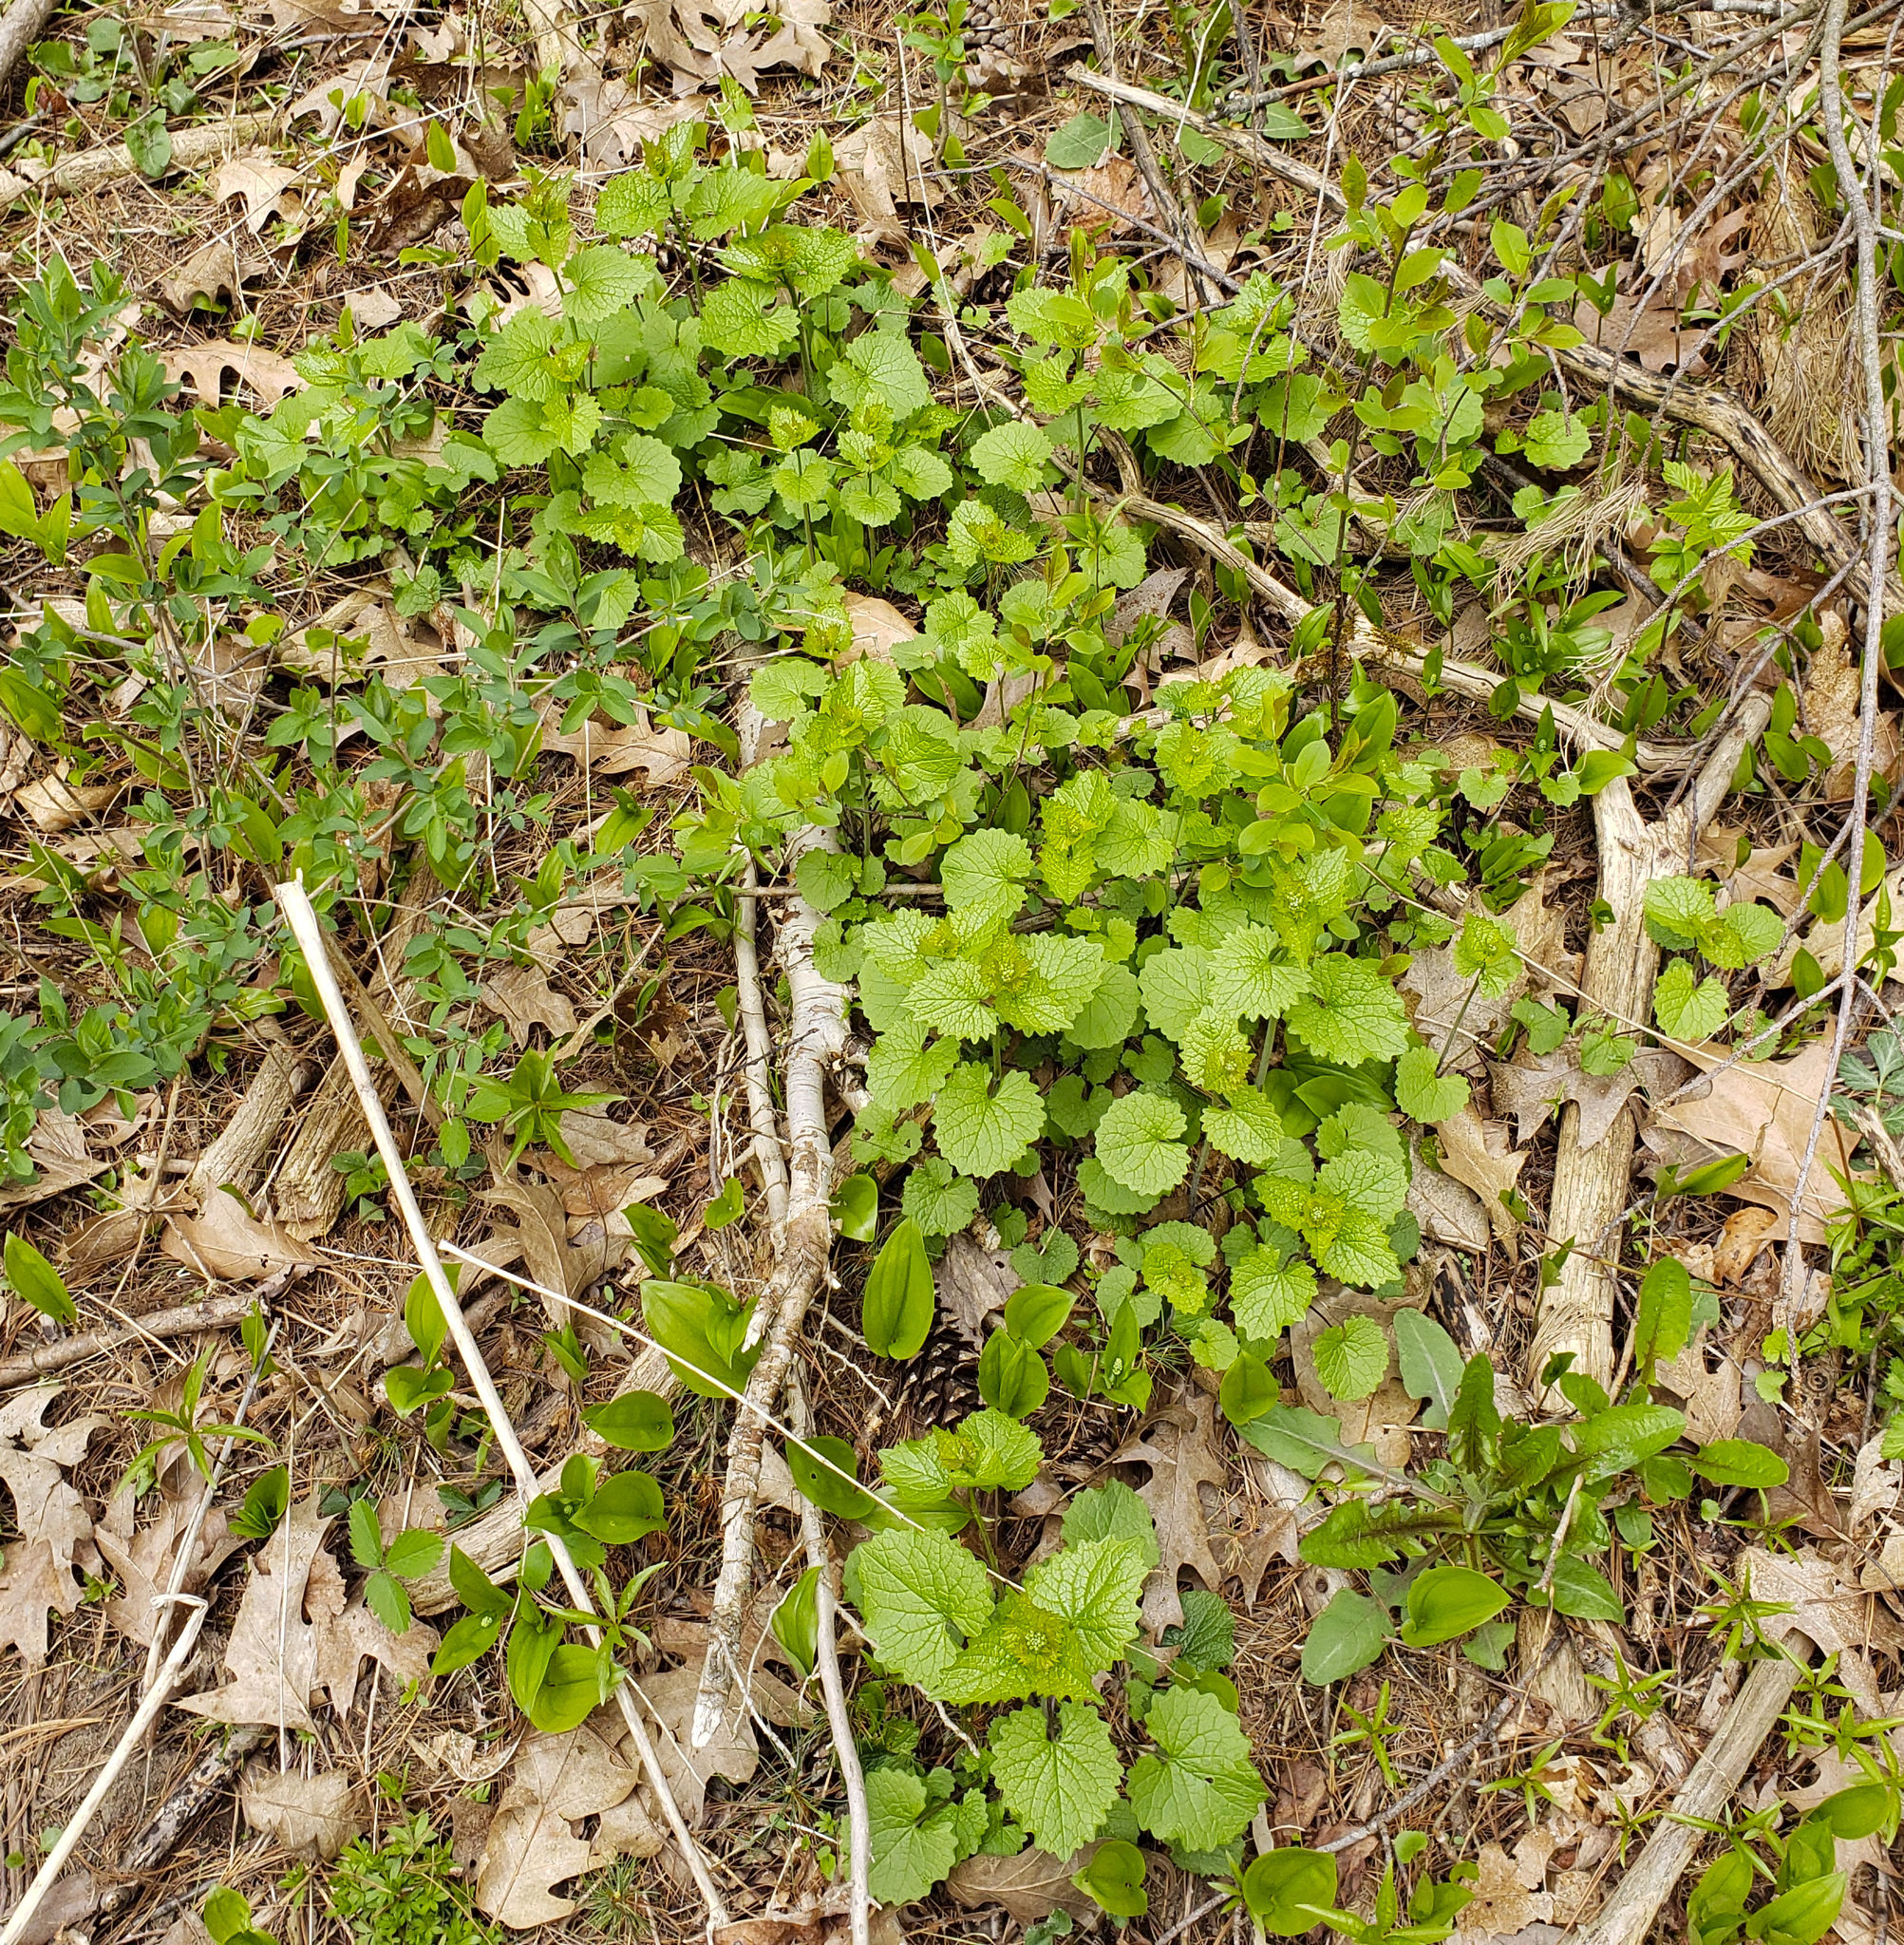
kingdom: Plantae
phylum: Tracheophyta
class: Magnoliopsida
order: Brassicales
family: Brassicaceae
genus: Alliaria
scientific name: Alliaria petiolata
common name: Garlic mustard
